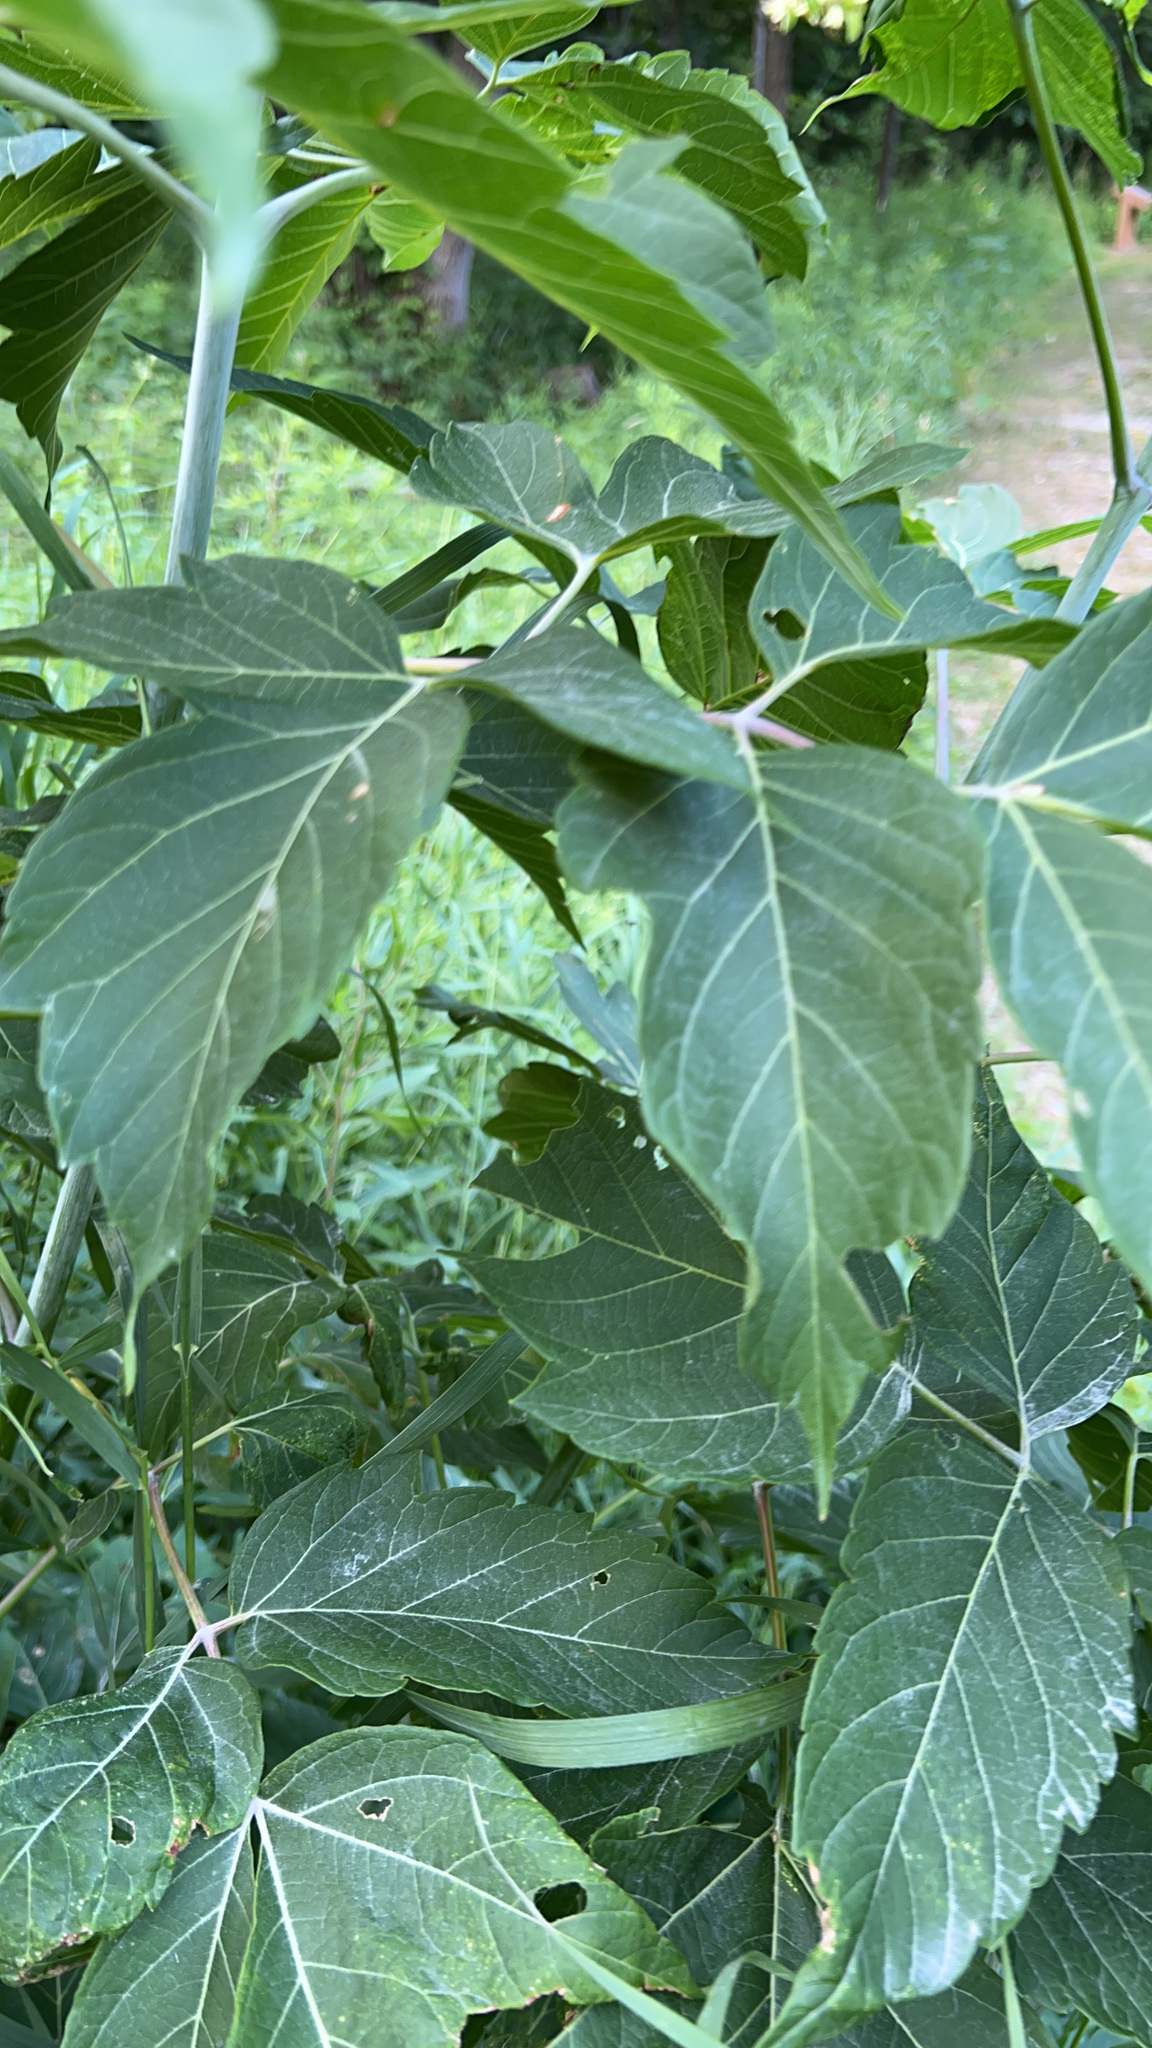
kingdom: Plantae
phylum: Tracheophyta
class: Magnoliopsida
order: Sapindales
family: Sapindaceae
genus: Acer
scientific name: Acer negundo
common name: Ashleaf maple
